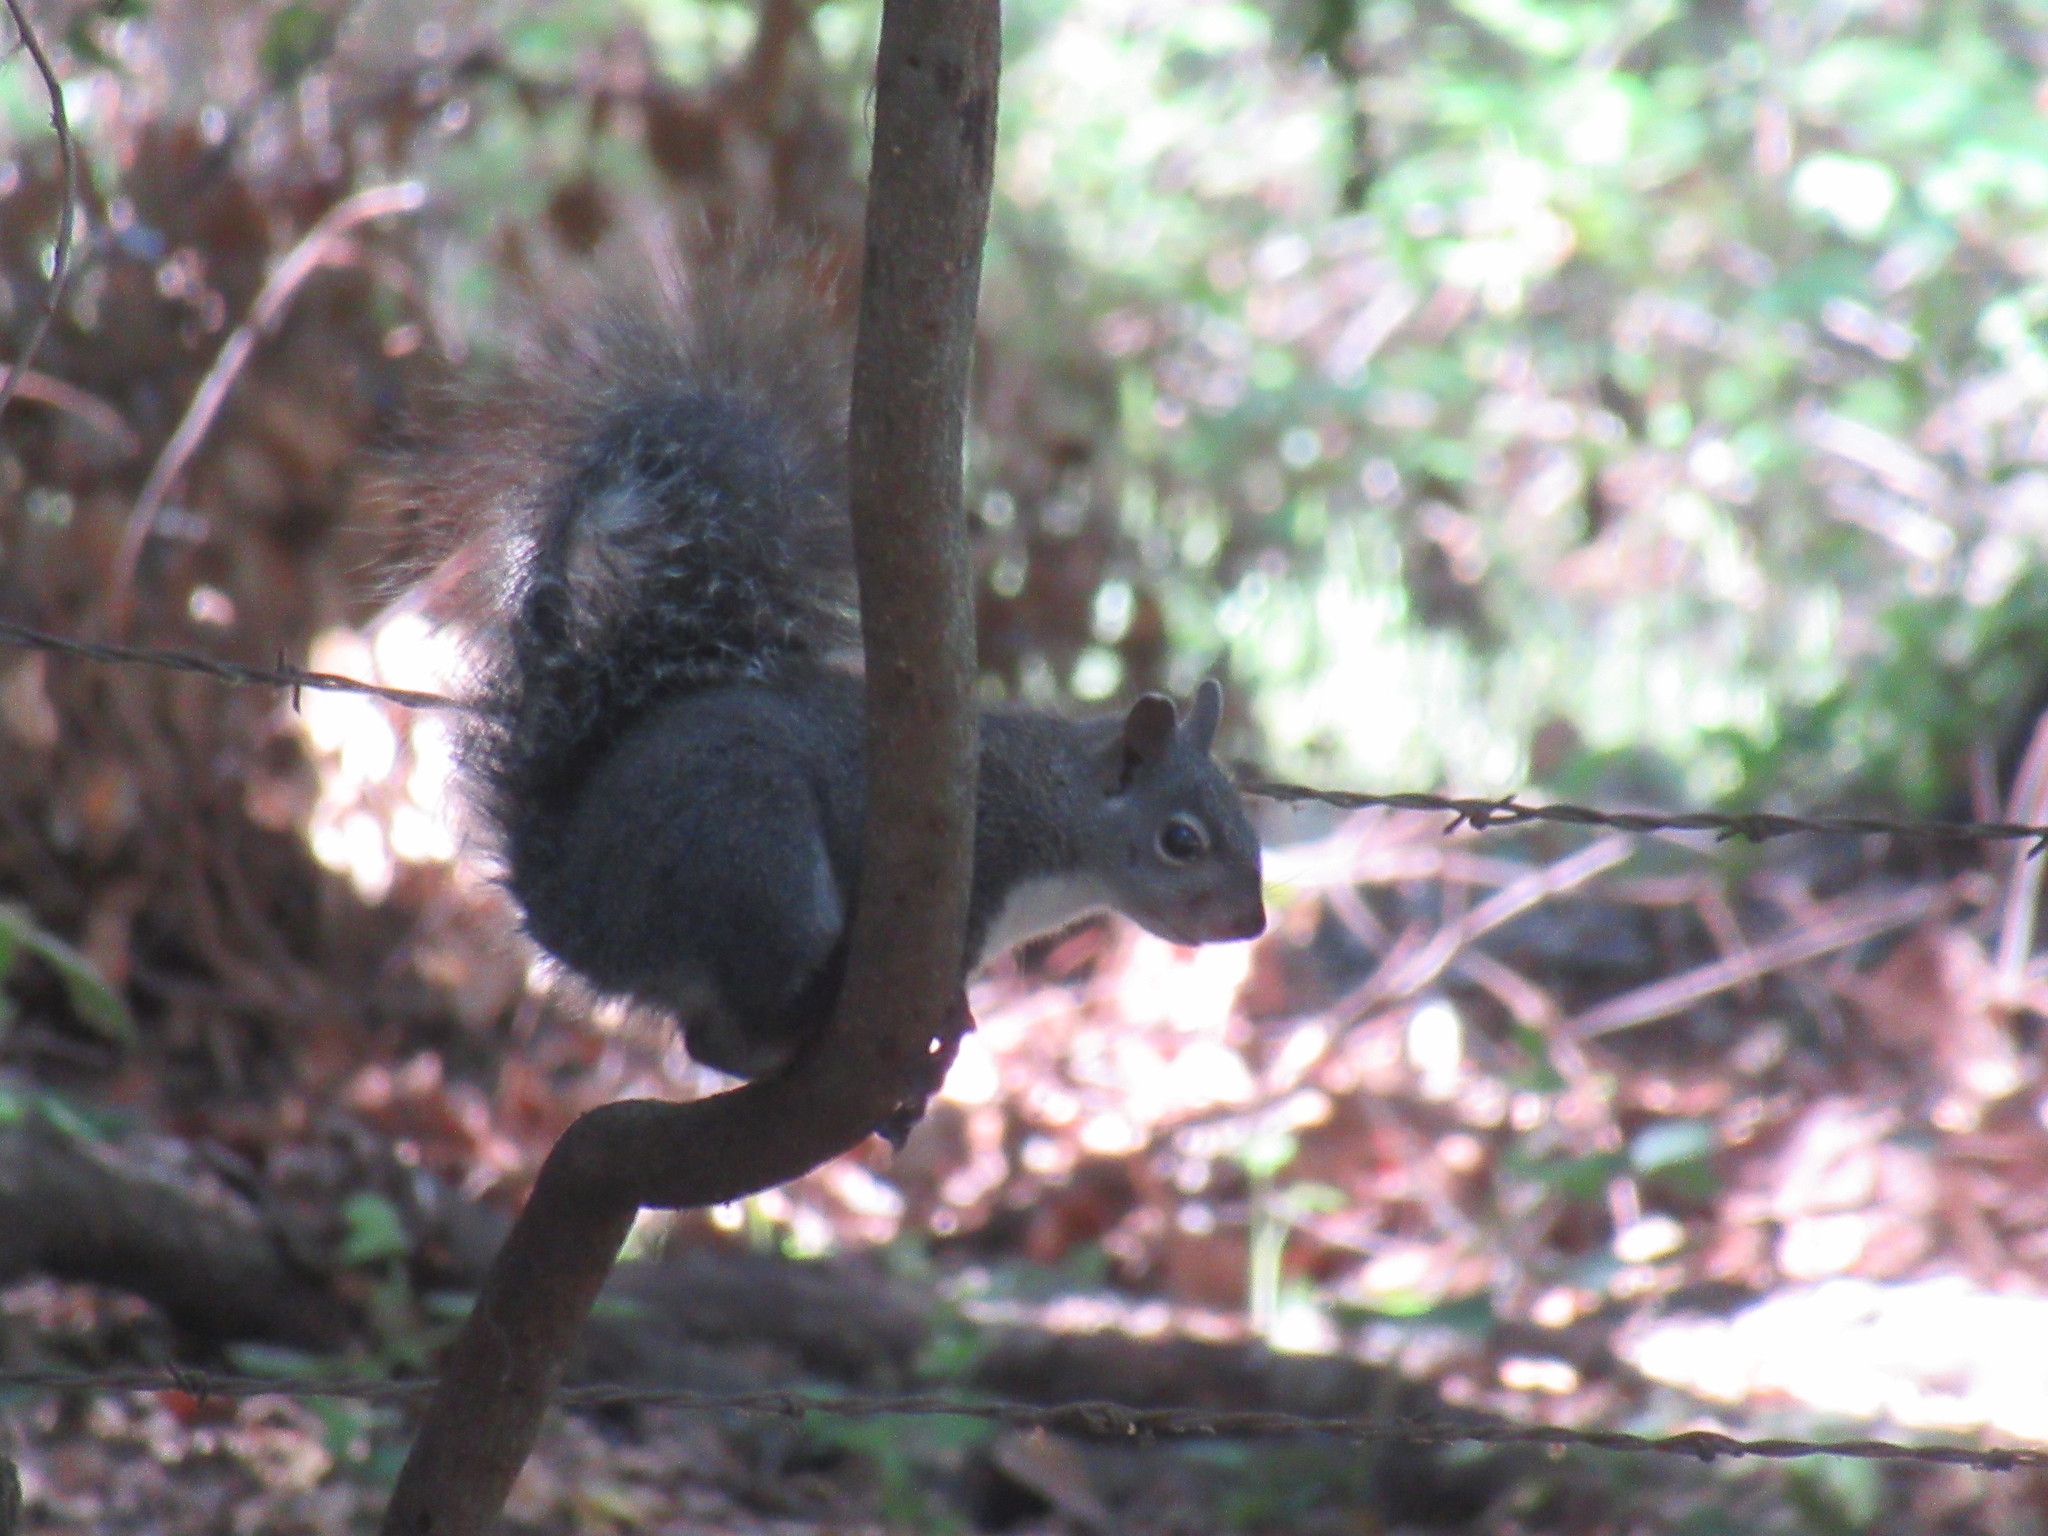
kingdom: Animalia
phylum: Chordata
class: Mammalia
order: Rodentia
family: Sciuridae
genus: Sciurus
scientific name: Sciurus griseus
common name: Western gray squirrel
